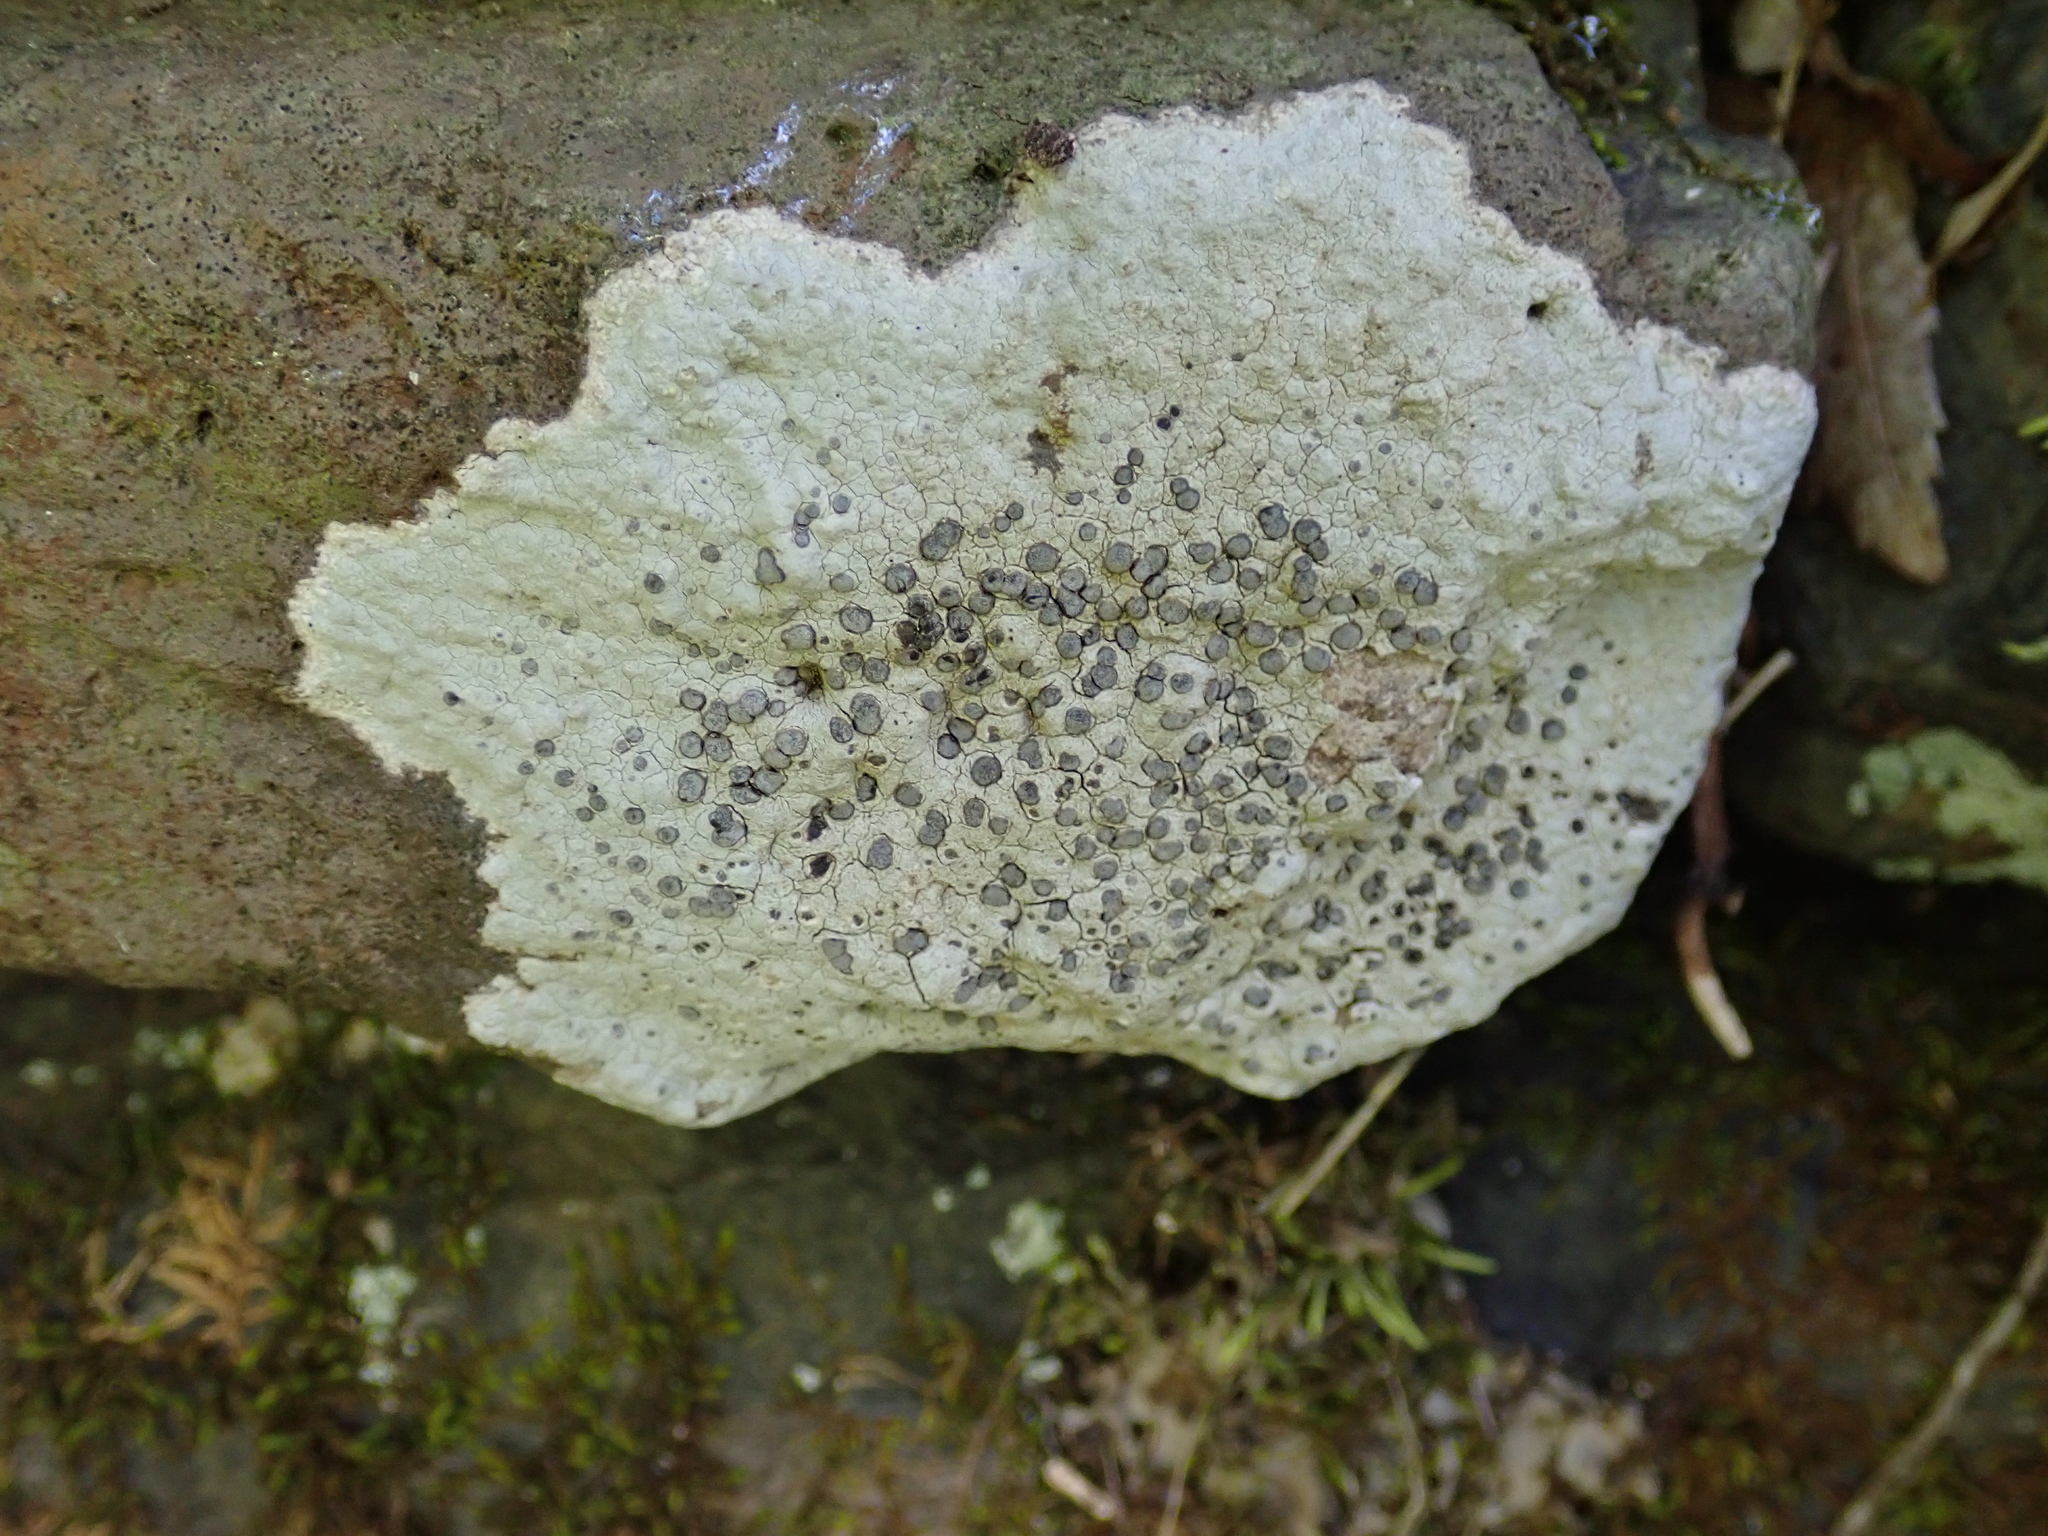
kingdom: Fungi
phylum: Ascomycota
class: Lecanoromycetes
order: Lecideales
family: Lecideaceae
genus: Porpidia
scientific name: Porpidia albocaerulescens
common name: Smokey-eyed boulder lichen
